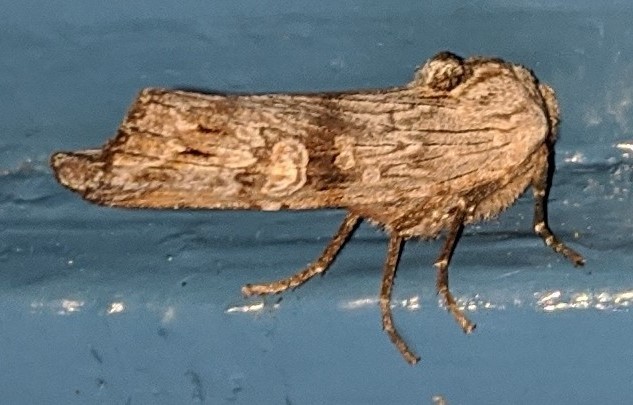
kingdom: Animalia
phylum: Arthropoda
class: Insecta
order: Lepidoptera
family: Noctuidae
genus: Xylena
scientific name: Xylena germana
